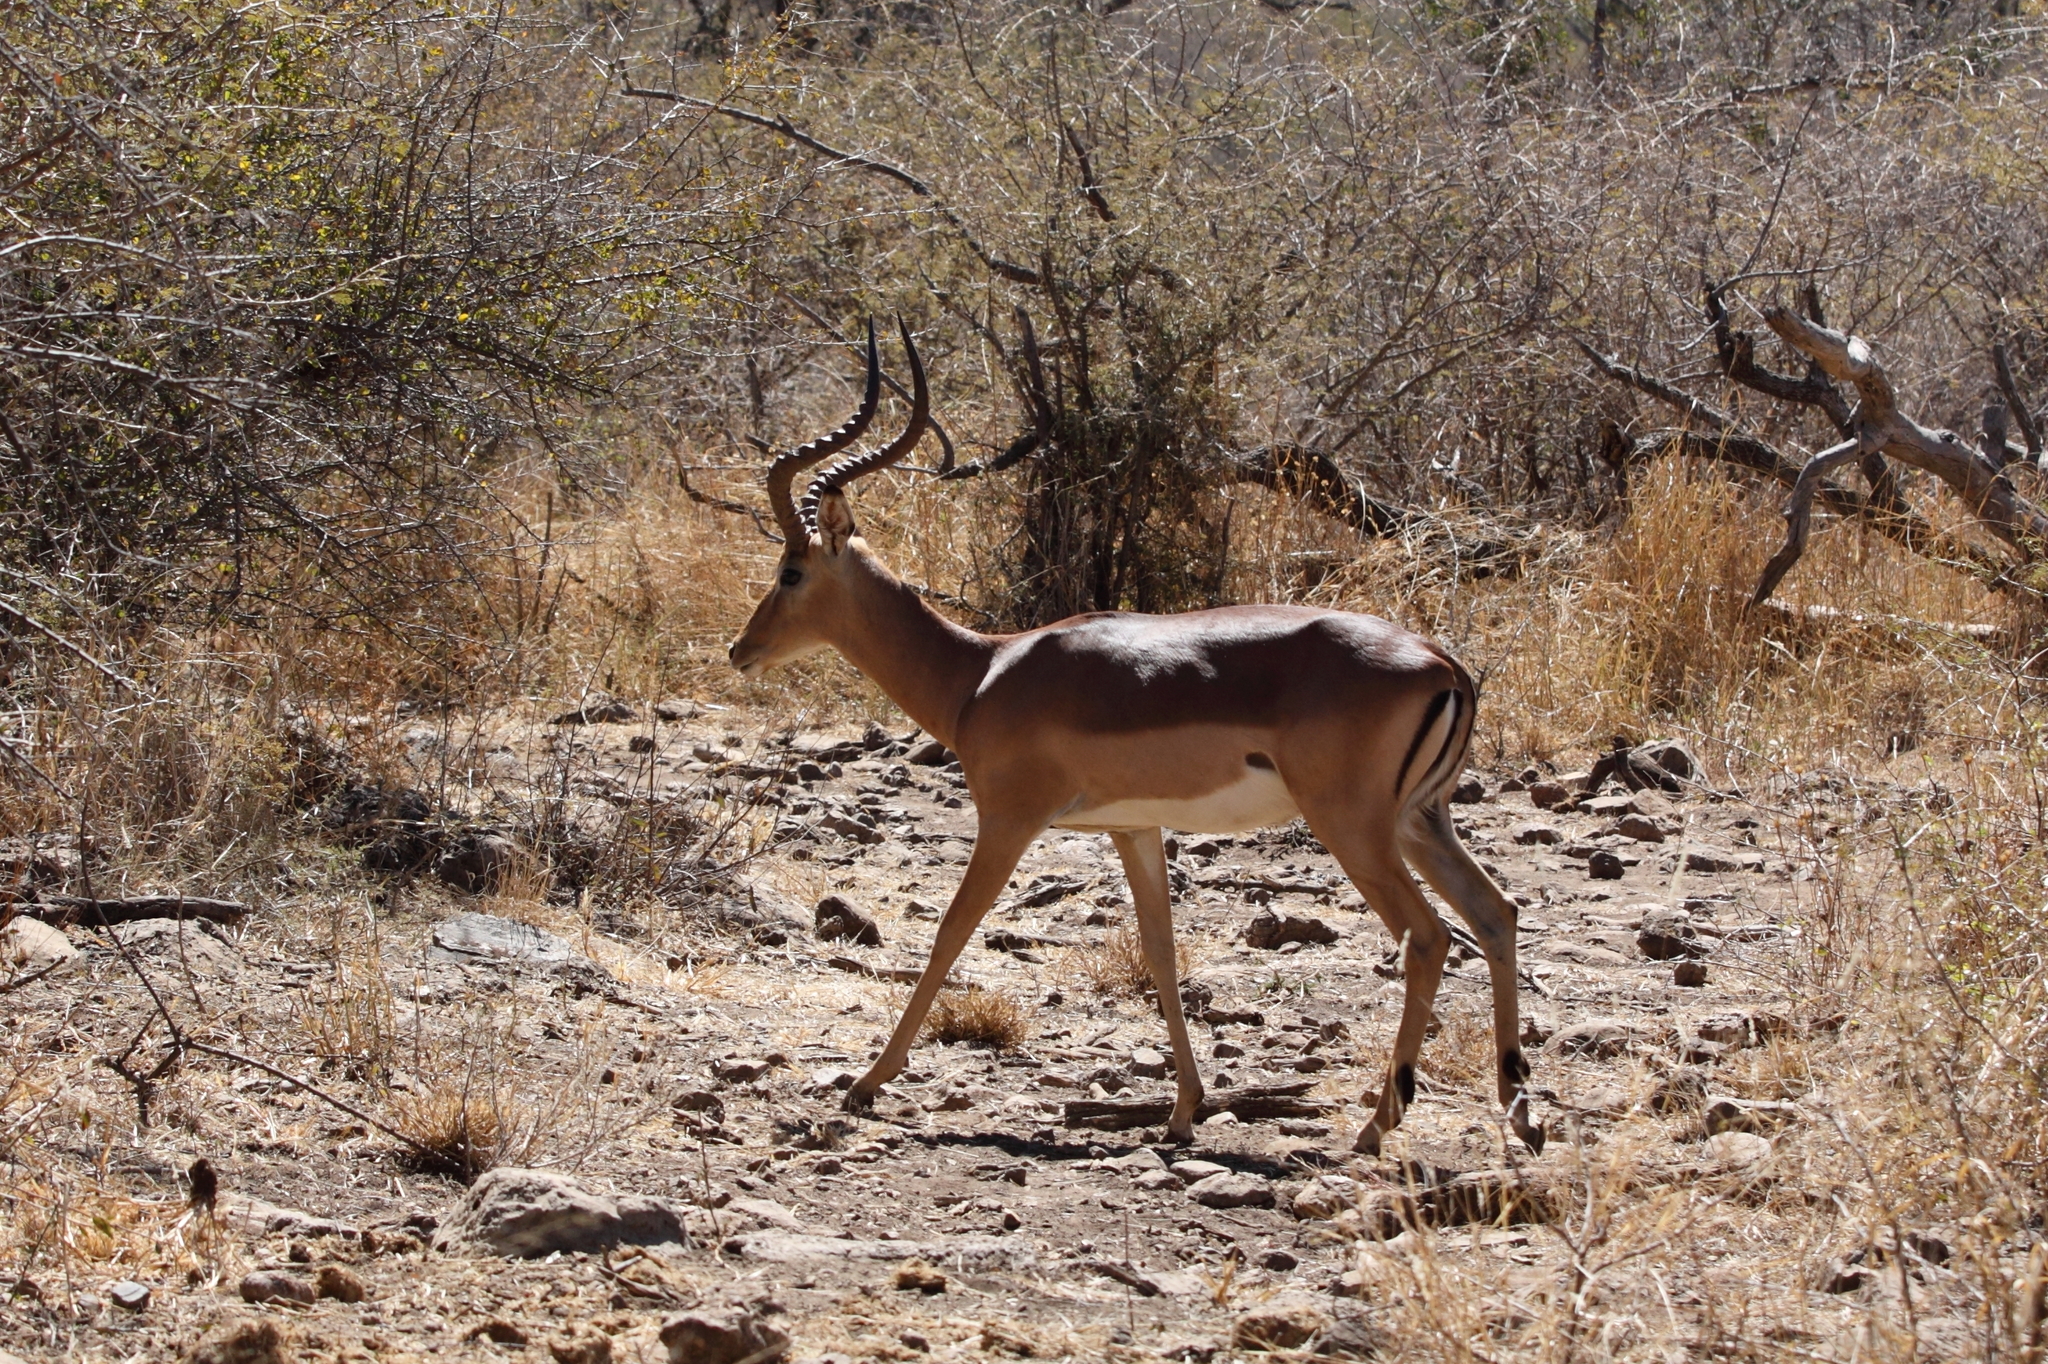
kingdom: Animalia
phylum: Chordata
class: Mammalia
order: Artiodactyla
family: Bovidae
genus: Aepyceros
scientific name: Aepyceros melampus
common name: Impala
